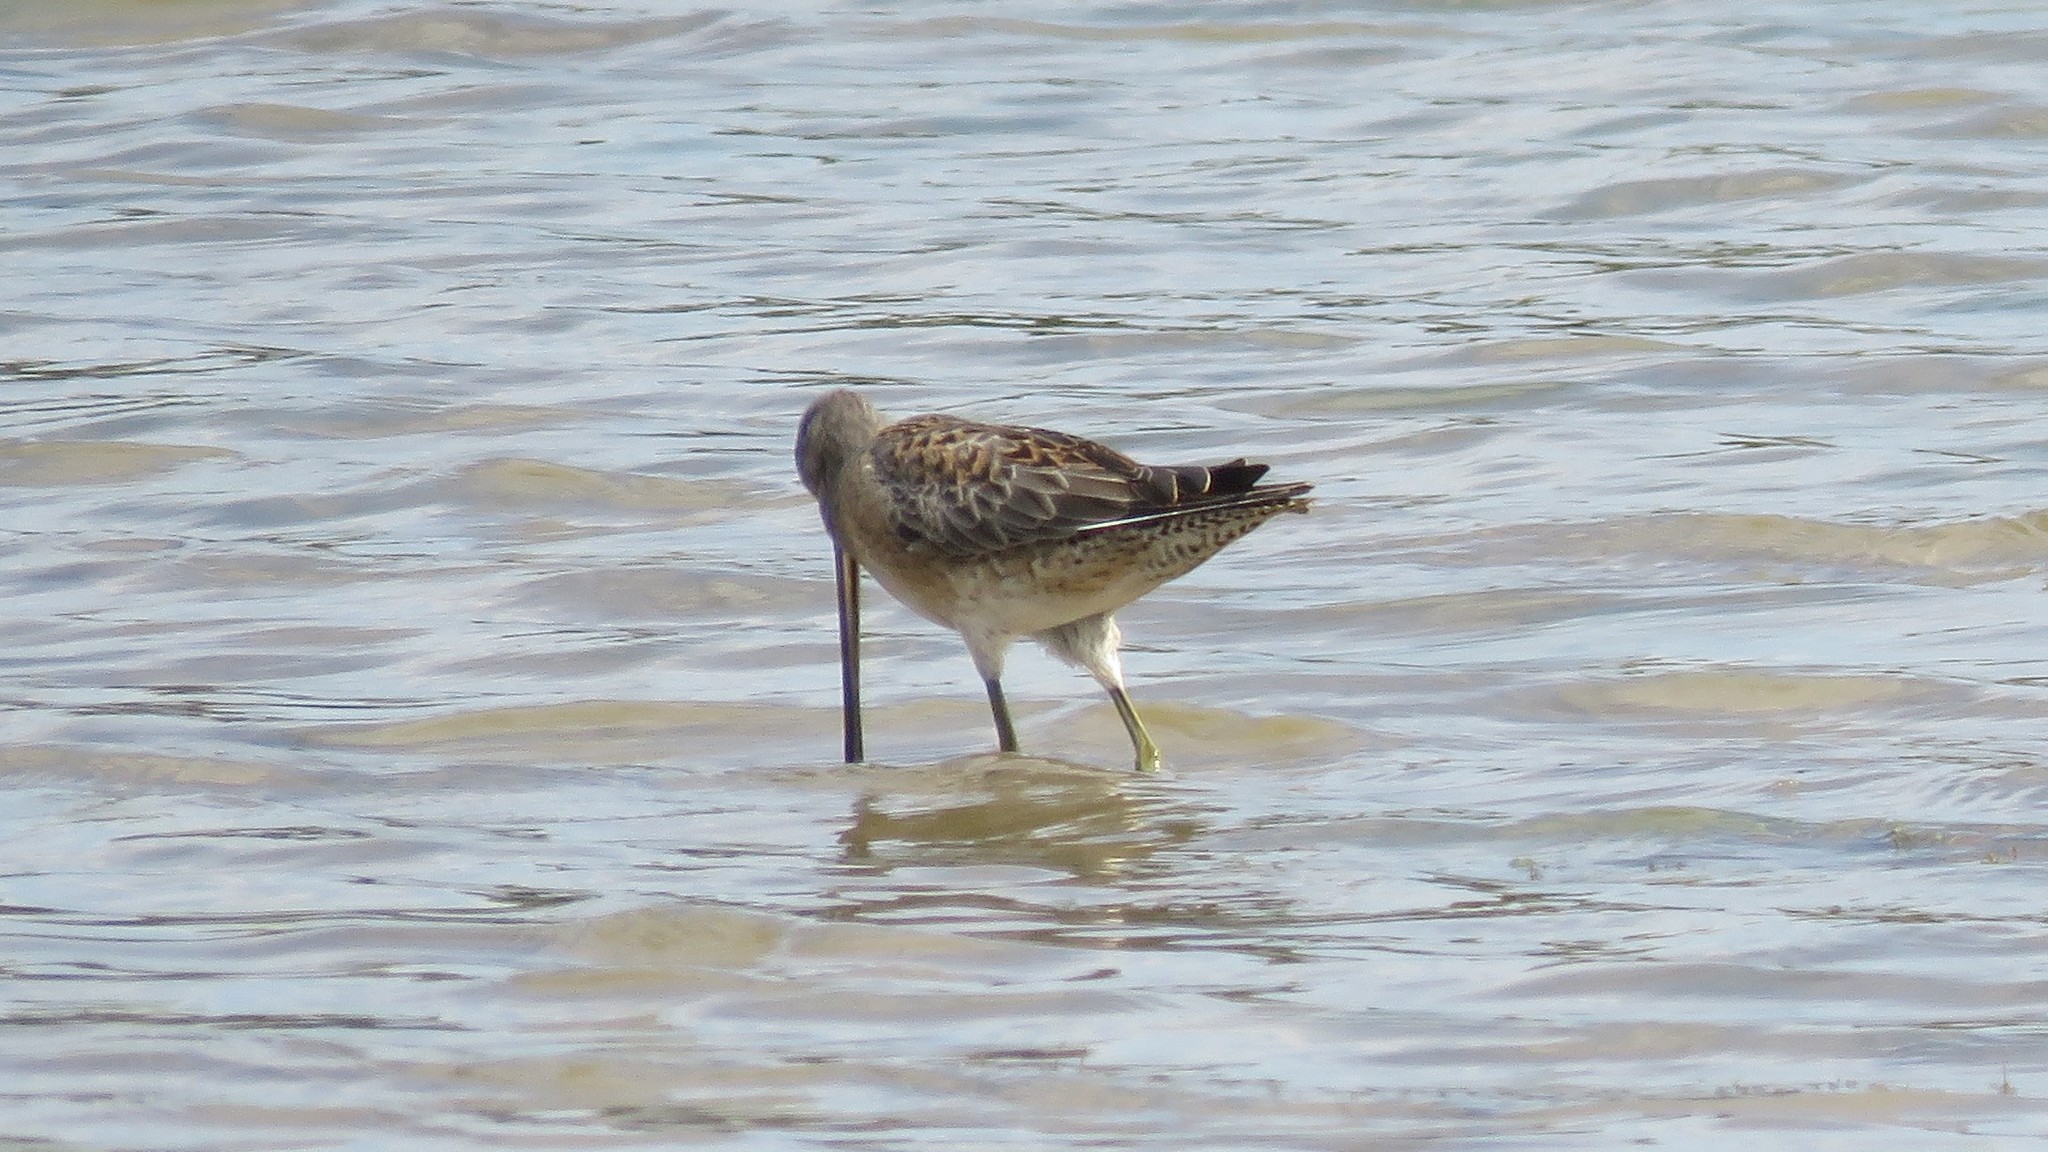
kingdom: Animalia
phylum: Chordata
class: Aves
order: Charadriiformes
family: Scolopacidae
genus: Limnodromus
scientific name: Limnodromus scolopaceus
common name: Long-billed dowitcher
